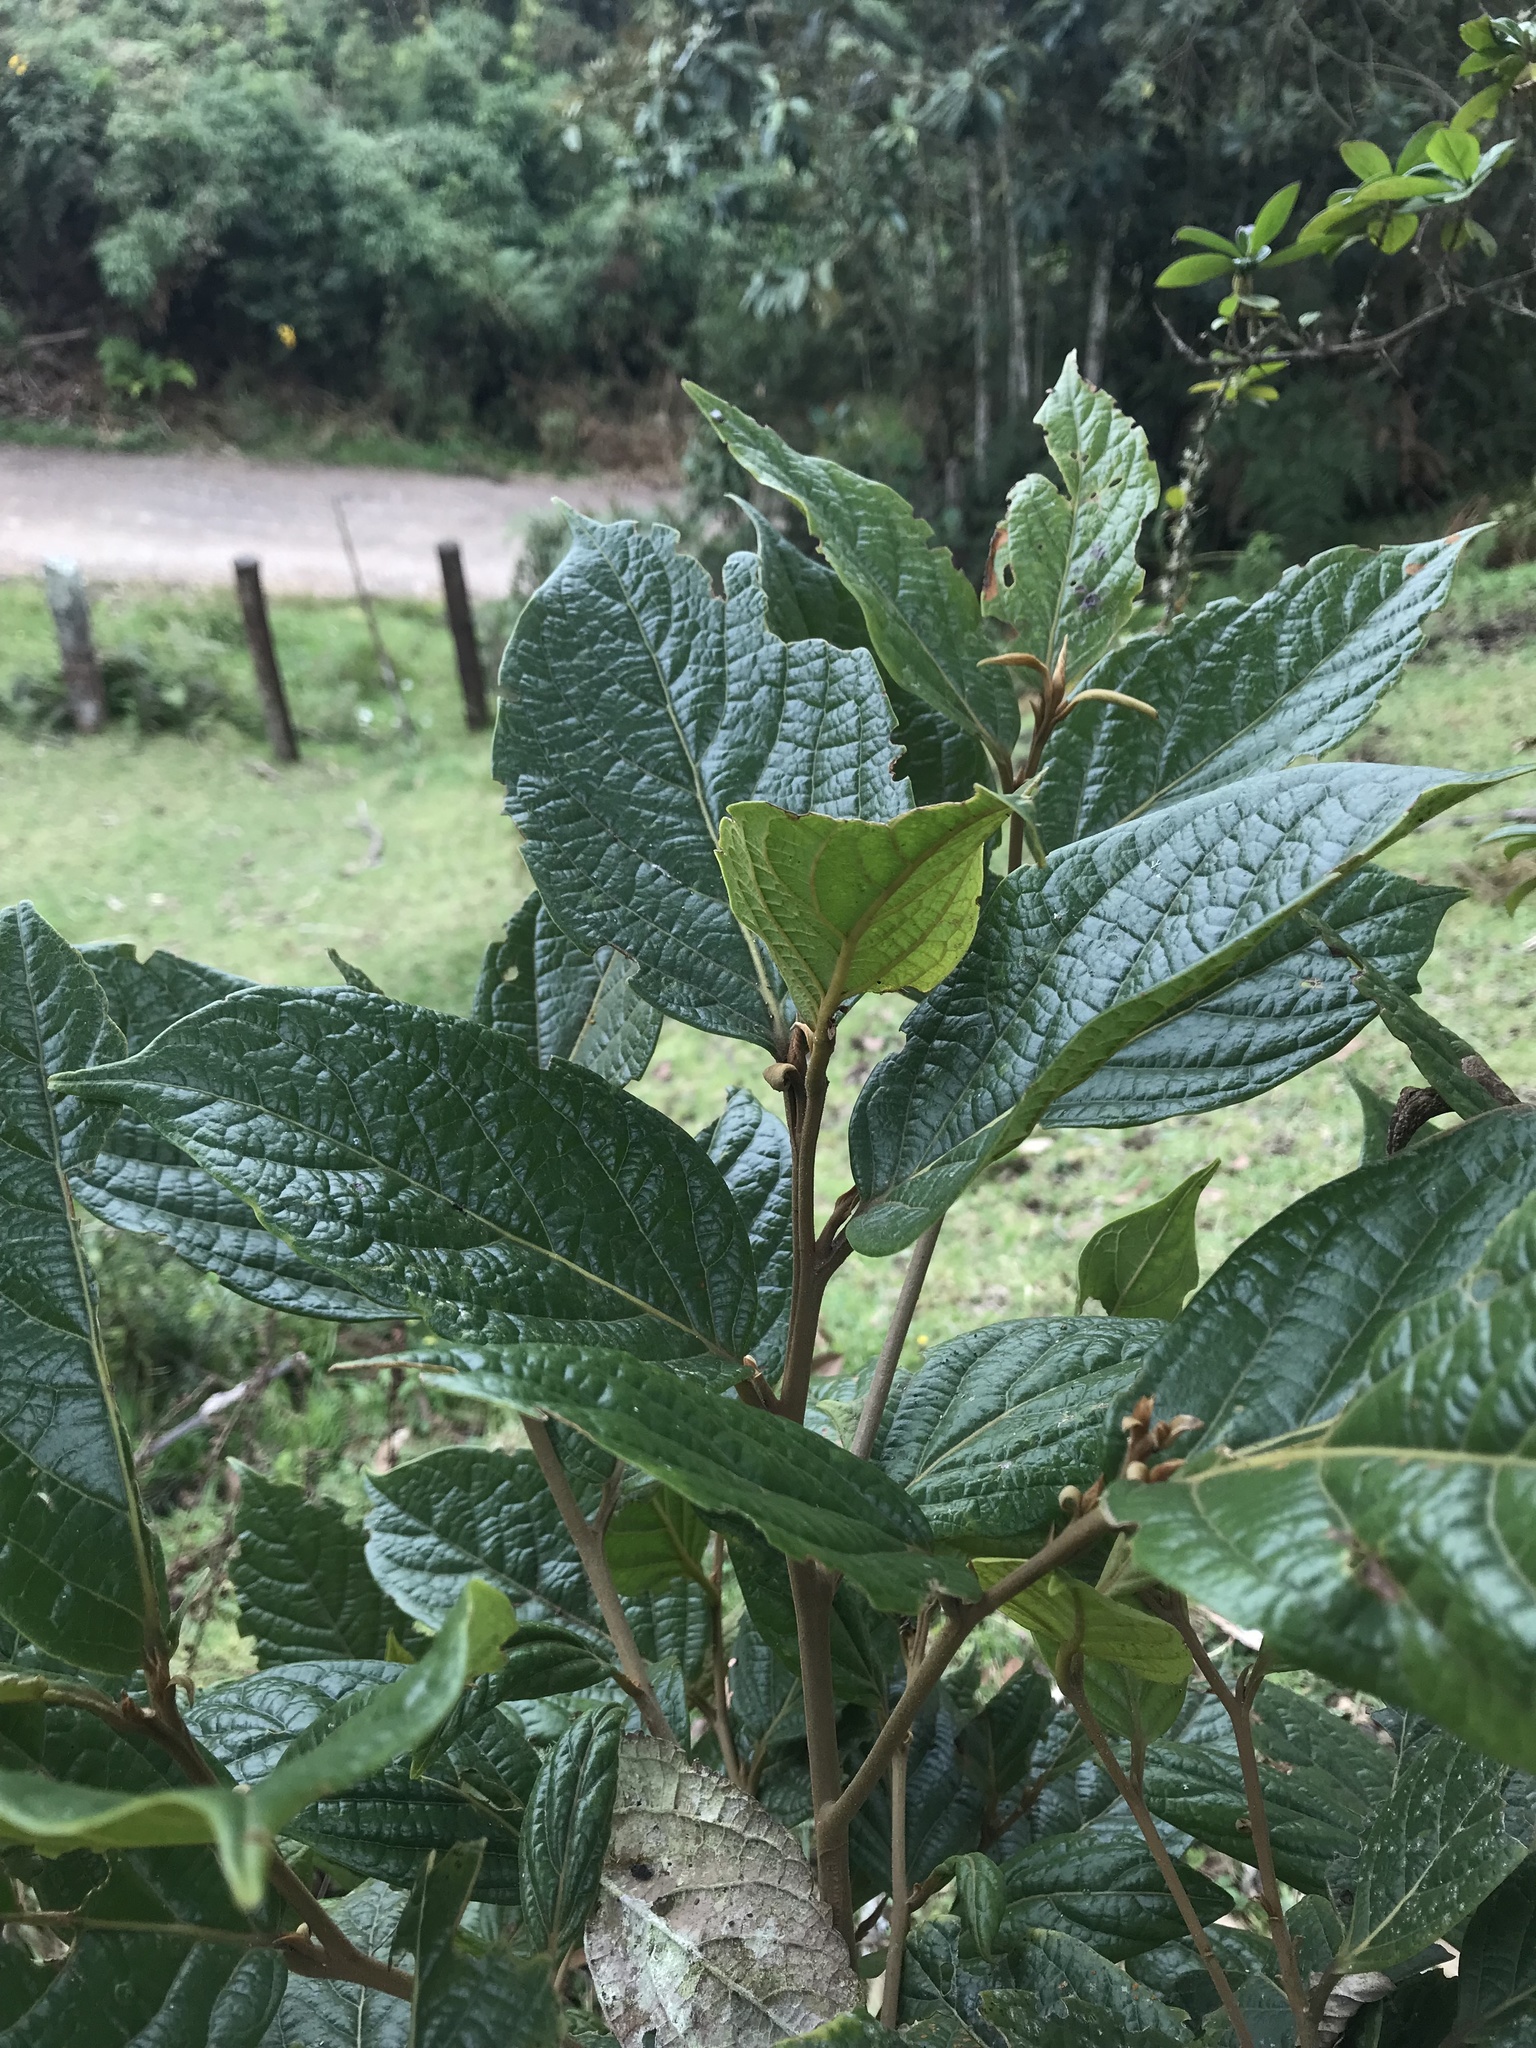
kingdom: Plantae
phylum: Tracheophyta
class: Magnoliopsida
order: Laurales
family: Lauraceae
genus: Ocotea
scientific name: Ocotea pedicellata
